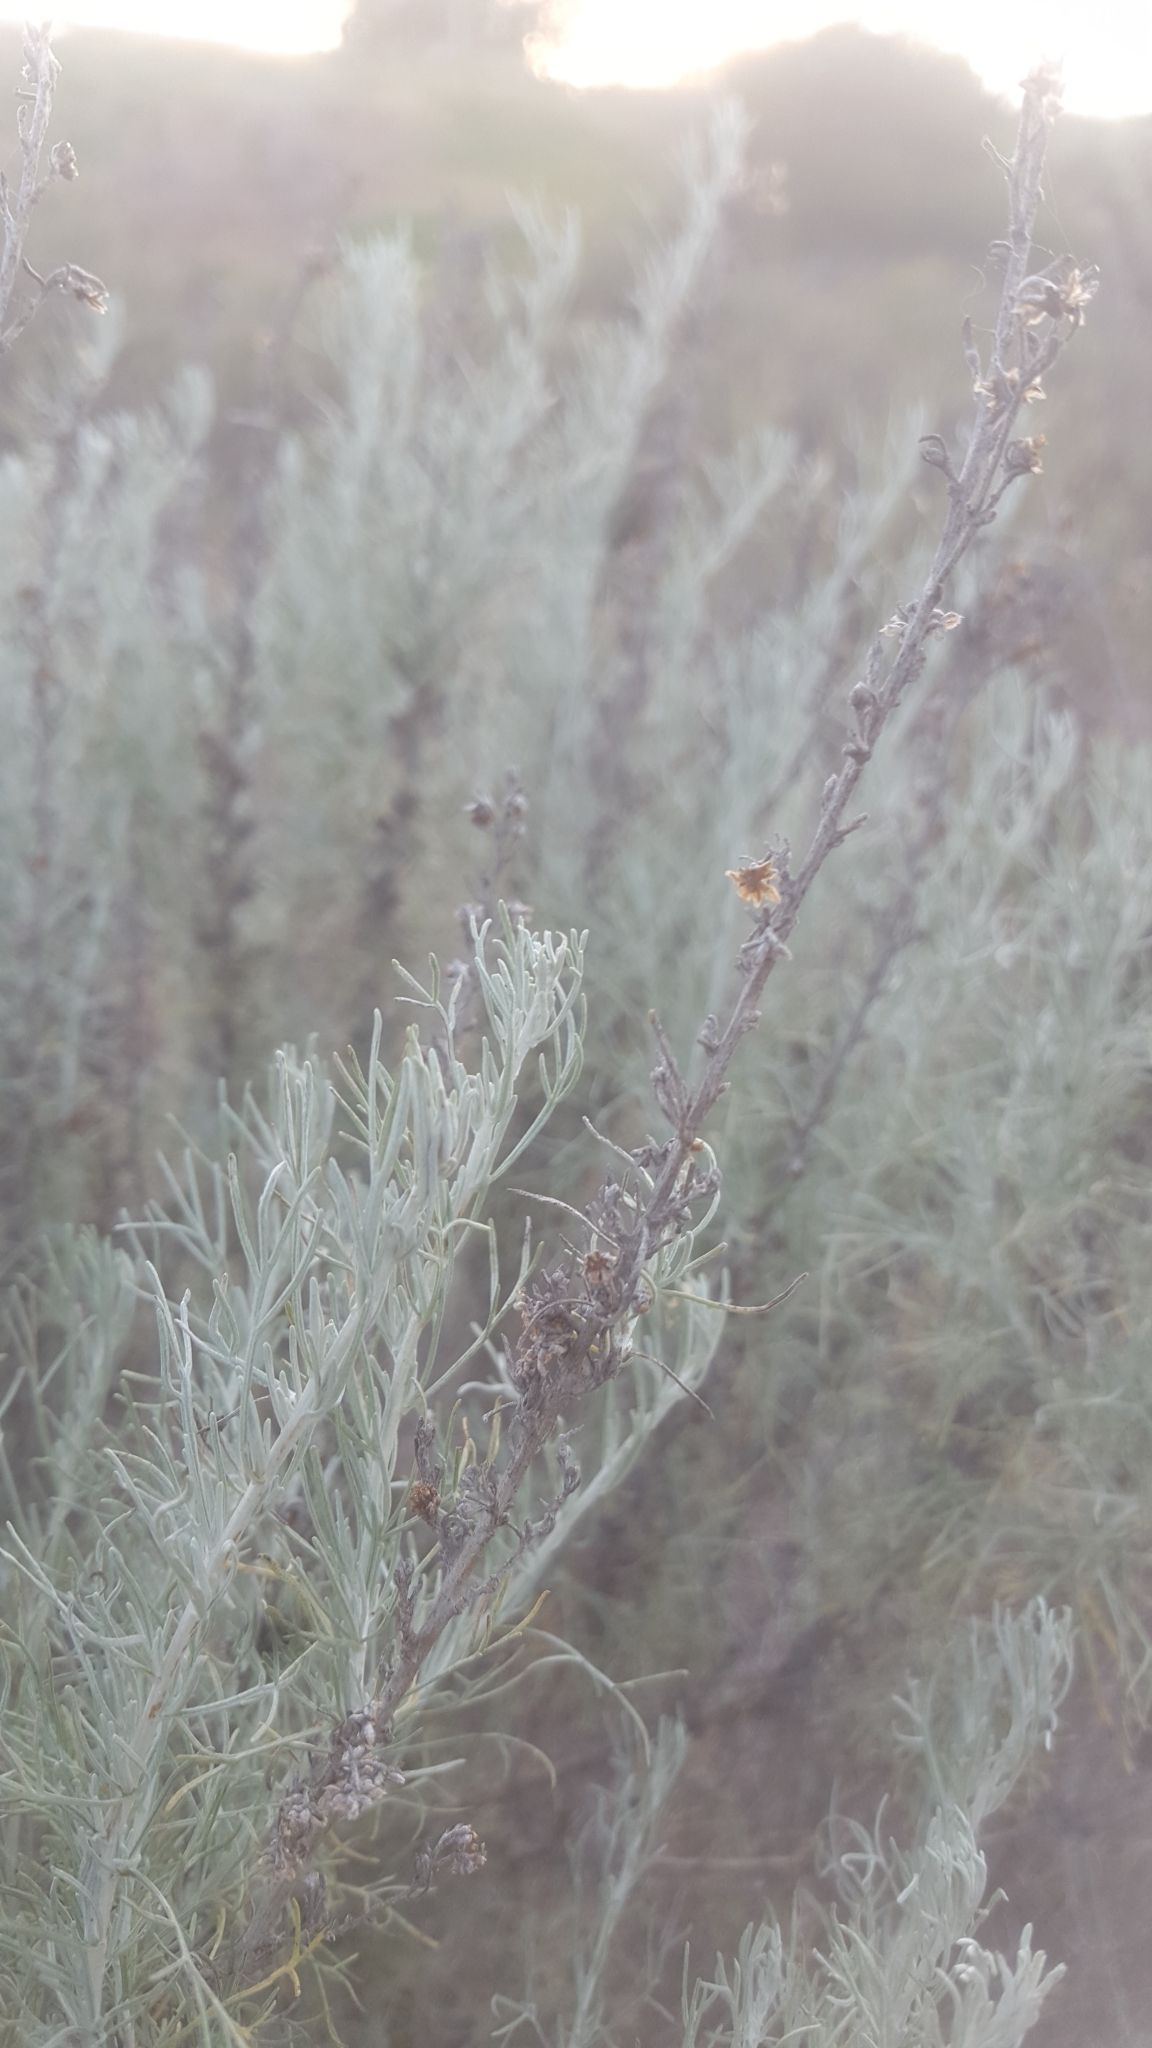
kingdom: Plantae
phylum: Tracheophyta
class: Magnoliopsida
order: Asterales
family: Asteraceae
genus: Artemisia
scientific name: Artemisia californica
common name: California sagebrush
